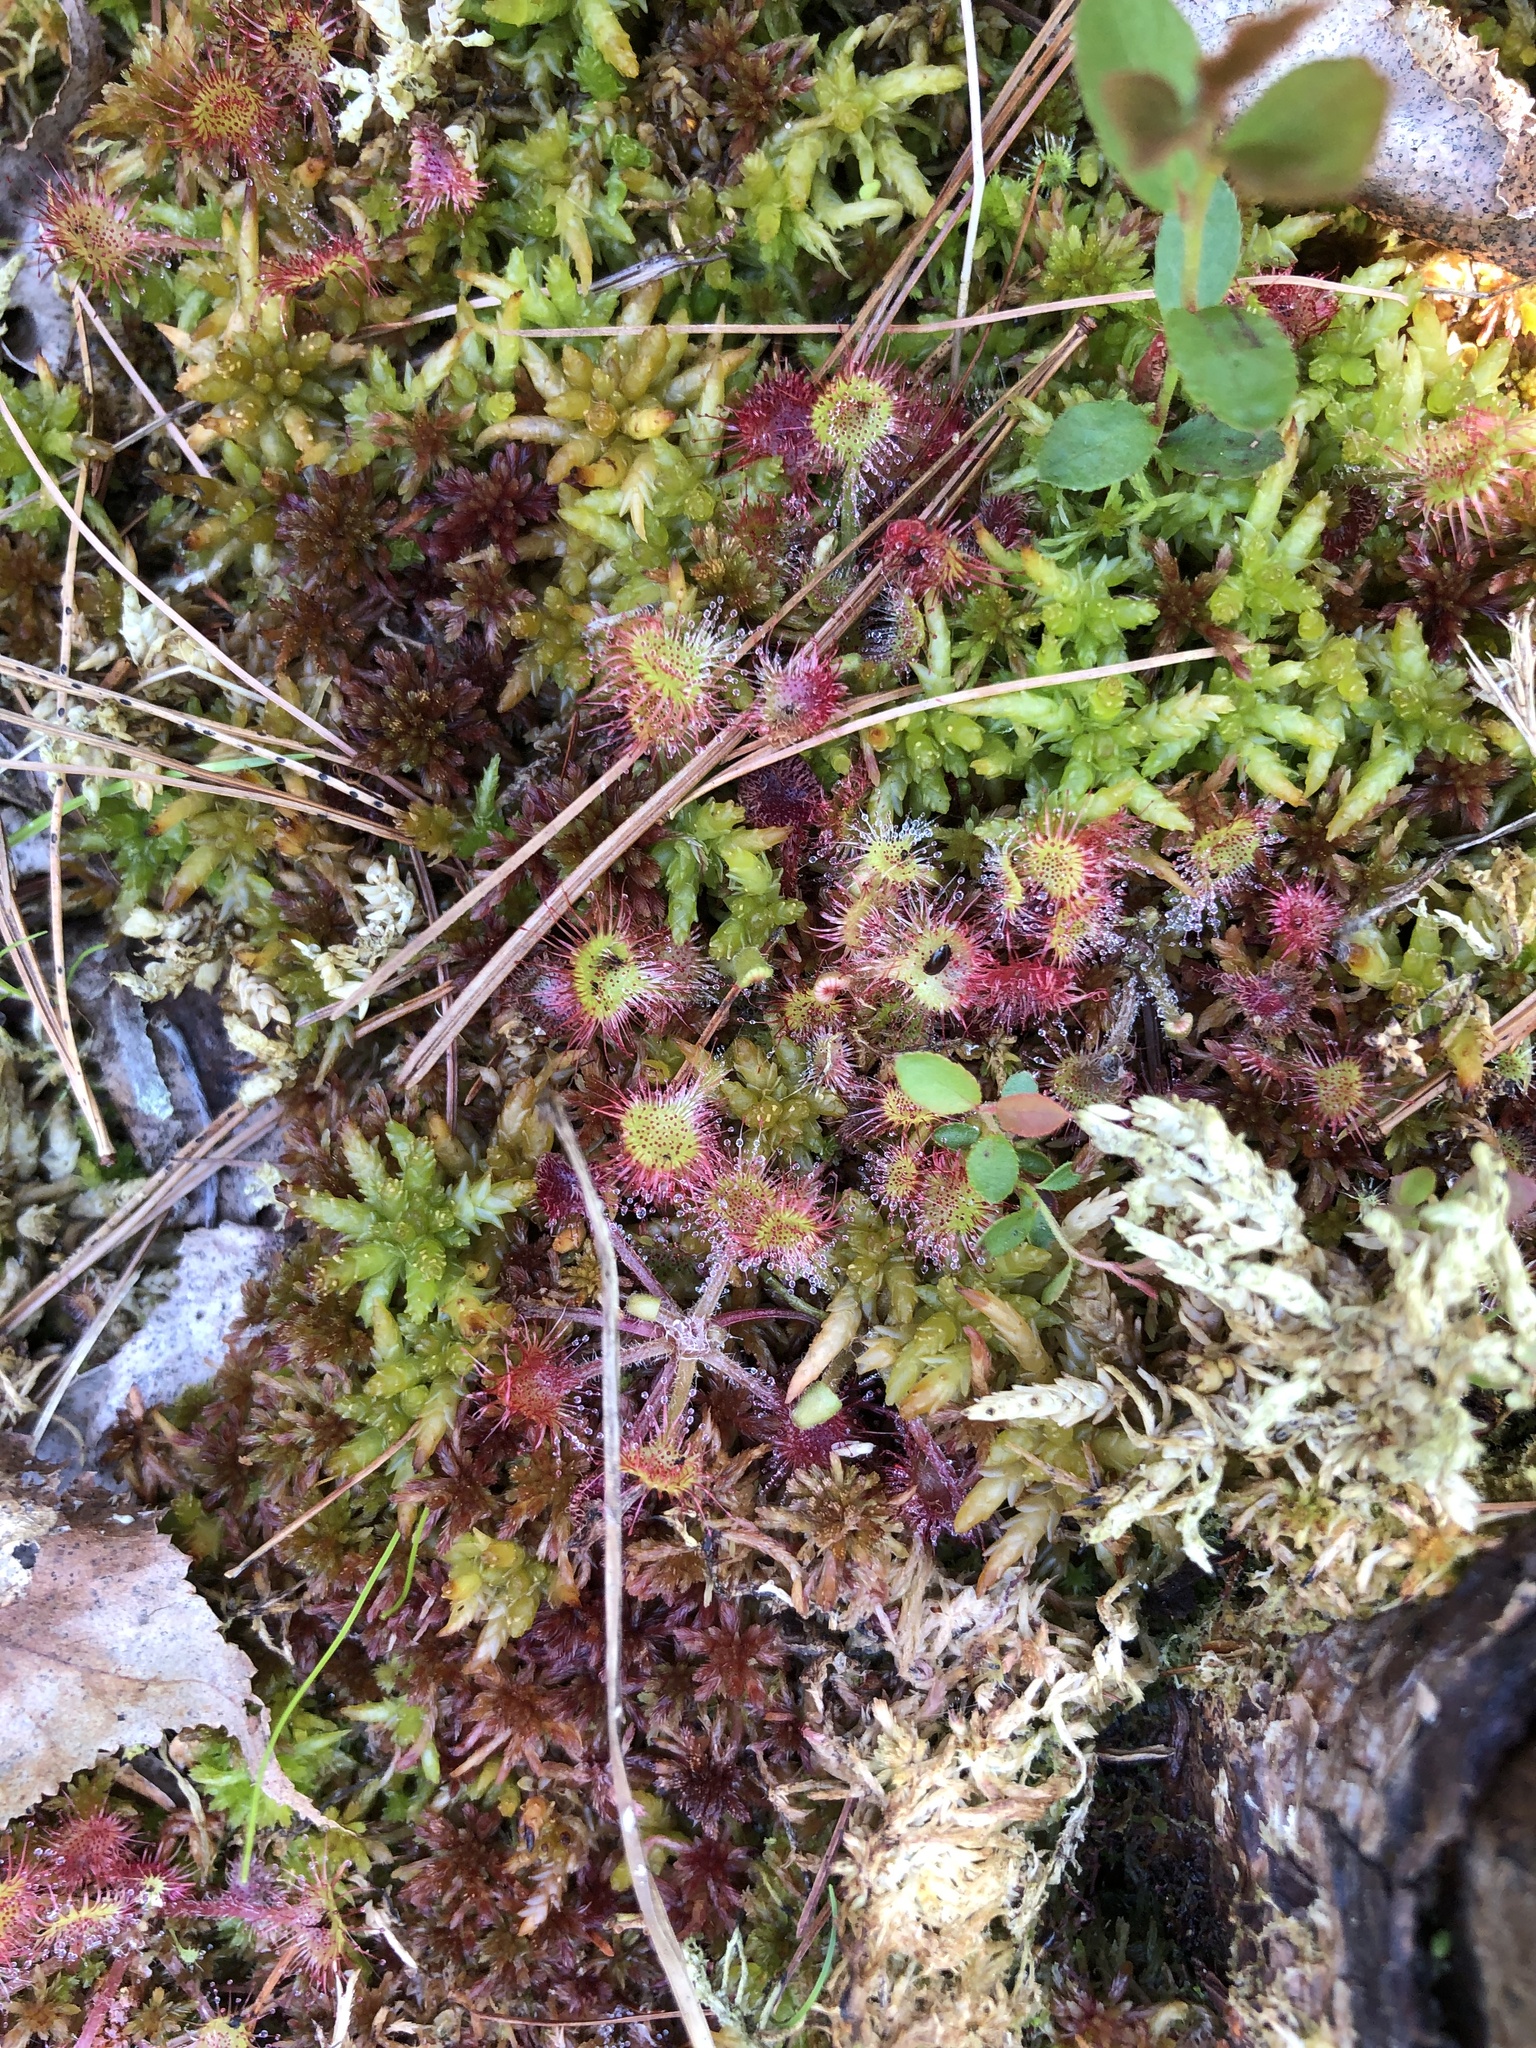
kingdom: Plantae
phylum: Tracheophyta
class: Magnoliopsida
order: Caryophyllales
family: Droseraceae
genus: Drosera
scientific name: Drosera rotundifolia
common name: Round-leaved sundew
